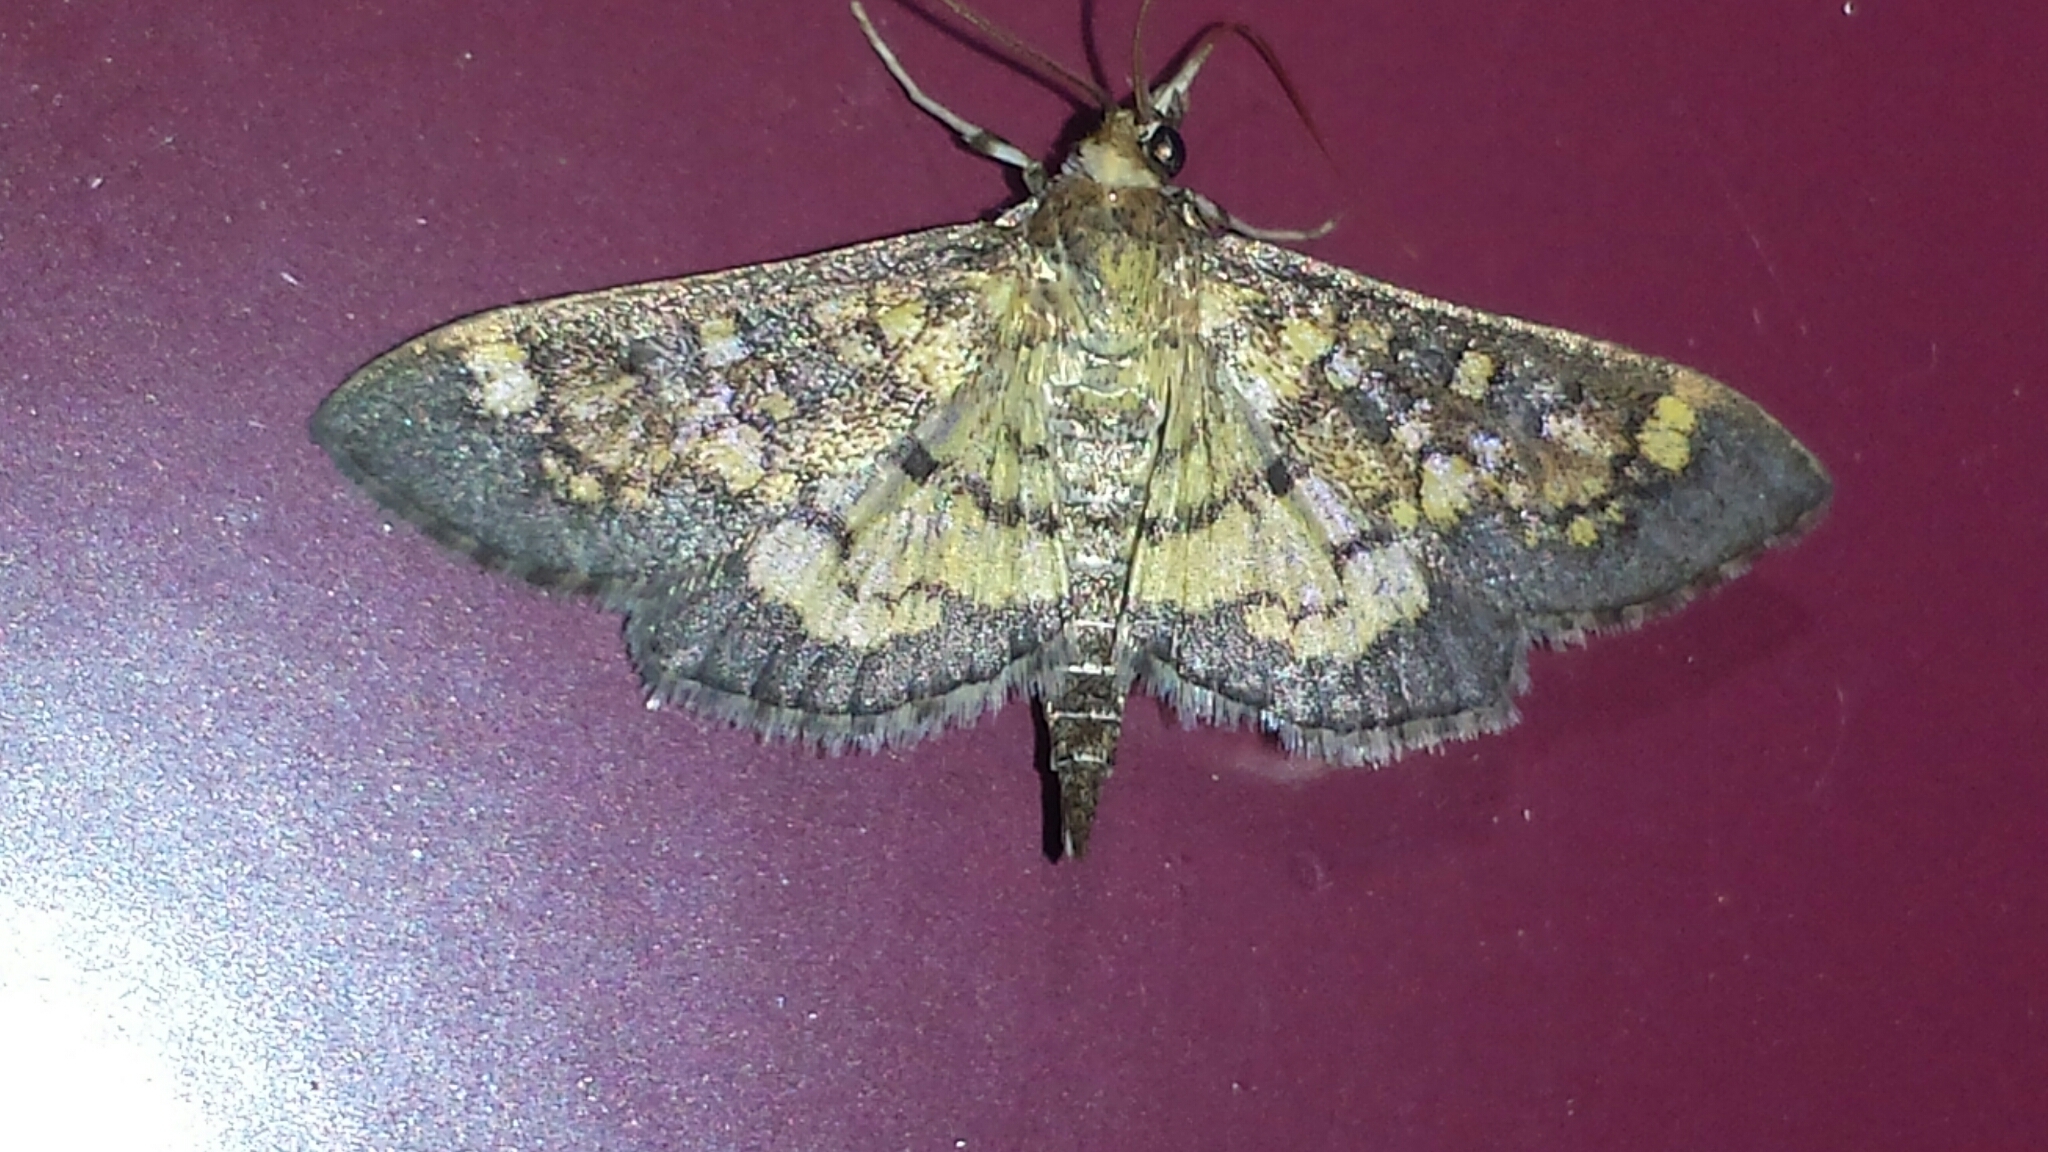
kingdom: Animalia
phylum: Arthropoda
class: Insecta
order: Lepidoptera
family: Crambidae
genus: Epipagis
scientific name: Epipagis adipaloides
